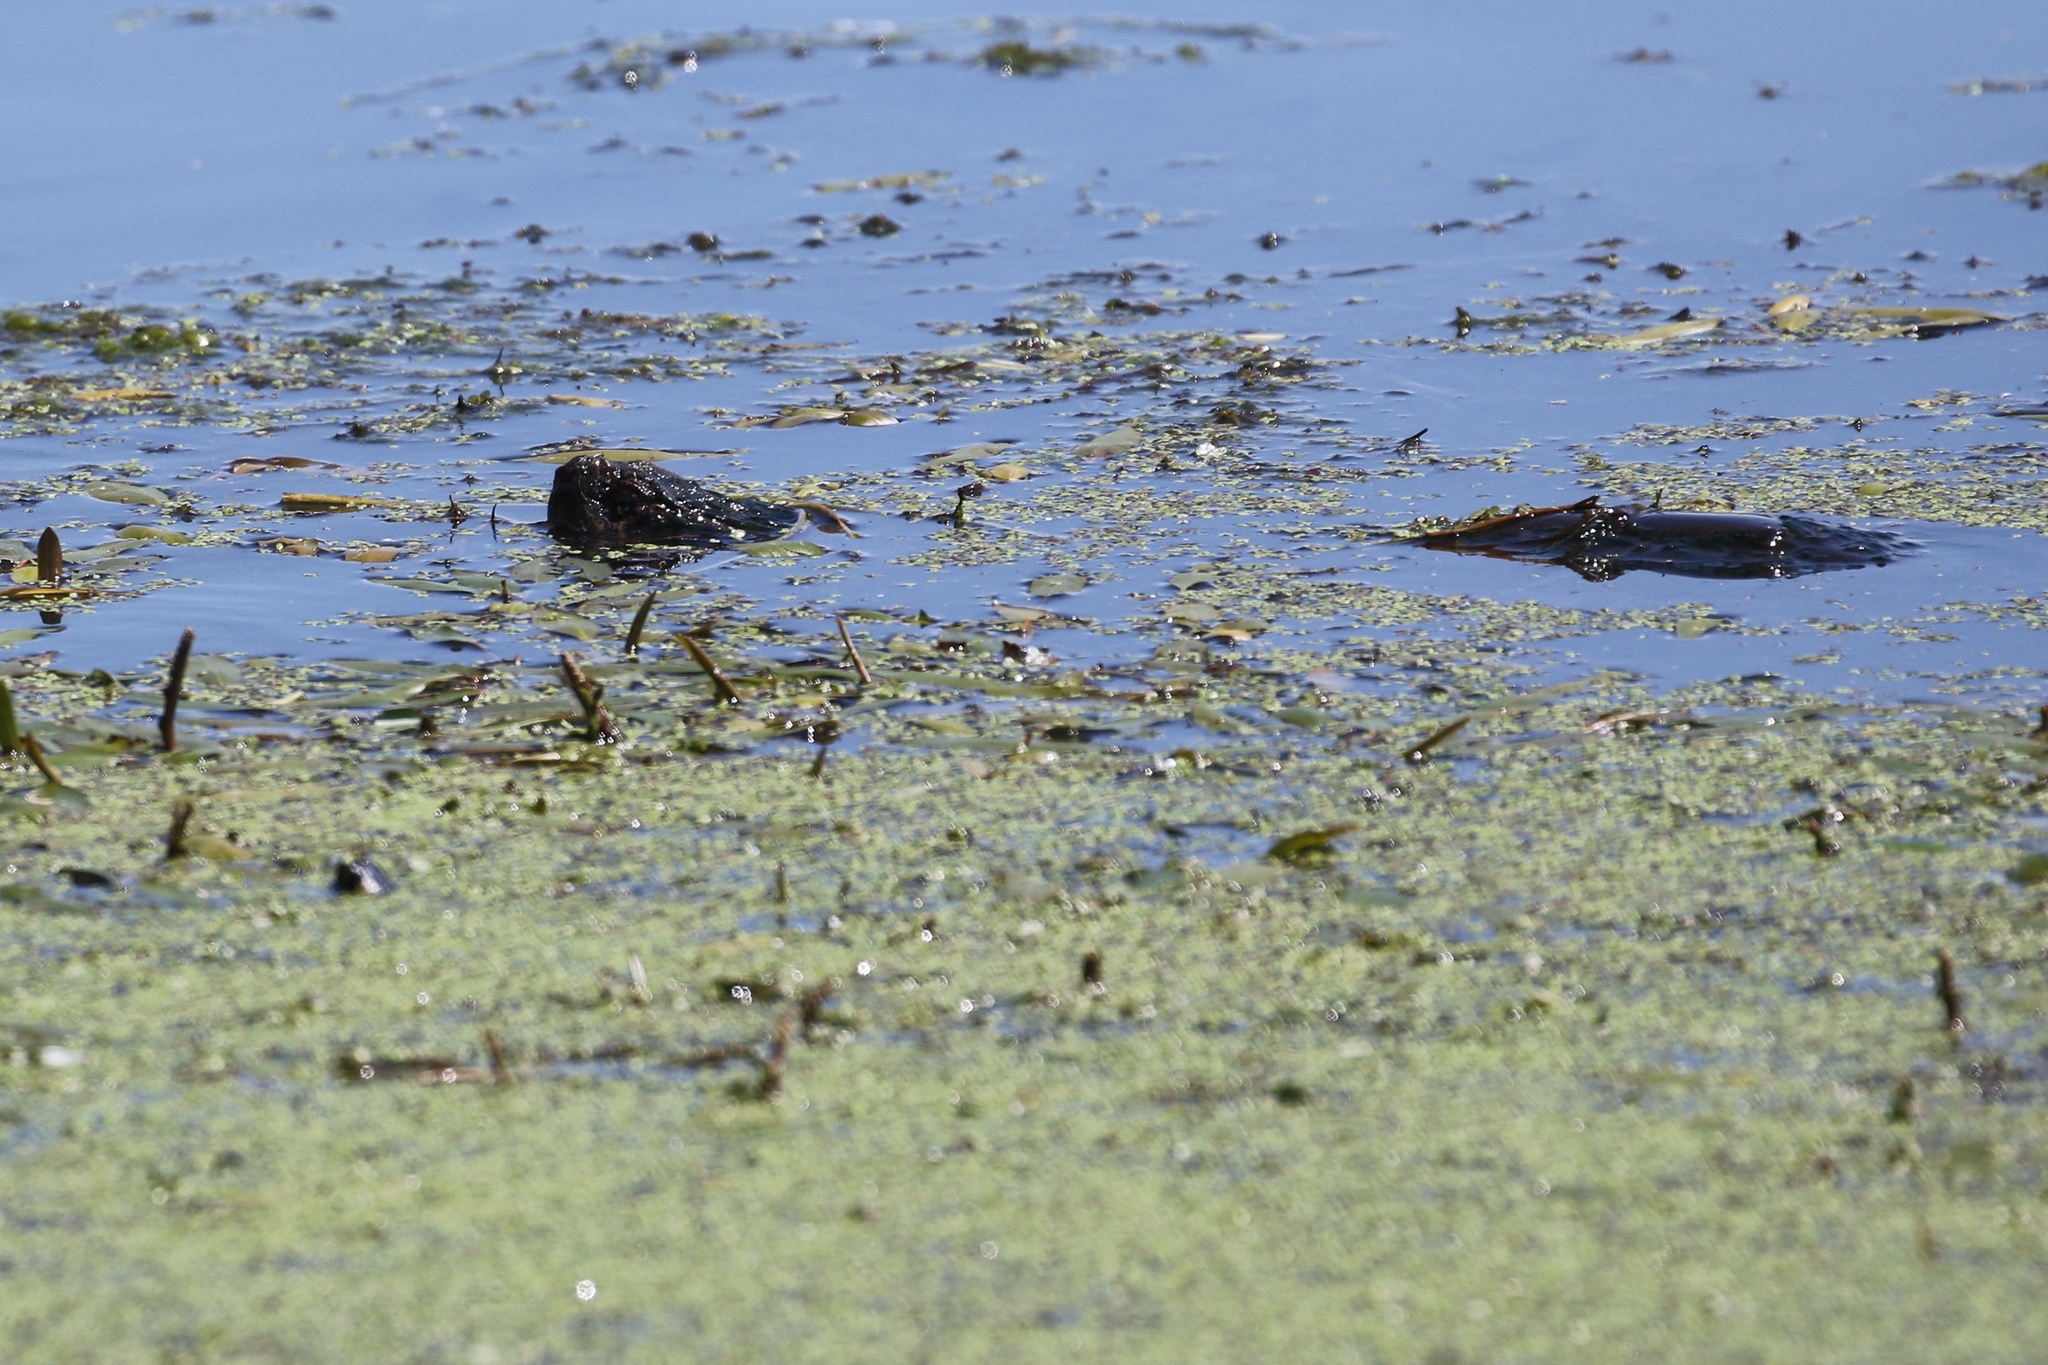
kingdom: Animalia
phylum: Chordata
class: Testudines
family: Chelydridae
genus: Chelydra
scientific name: Chelydra serpentina
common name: Common snapping turtle
